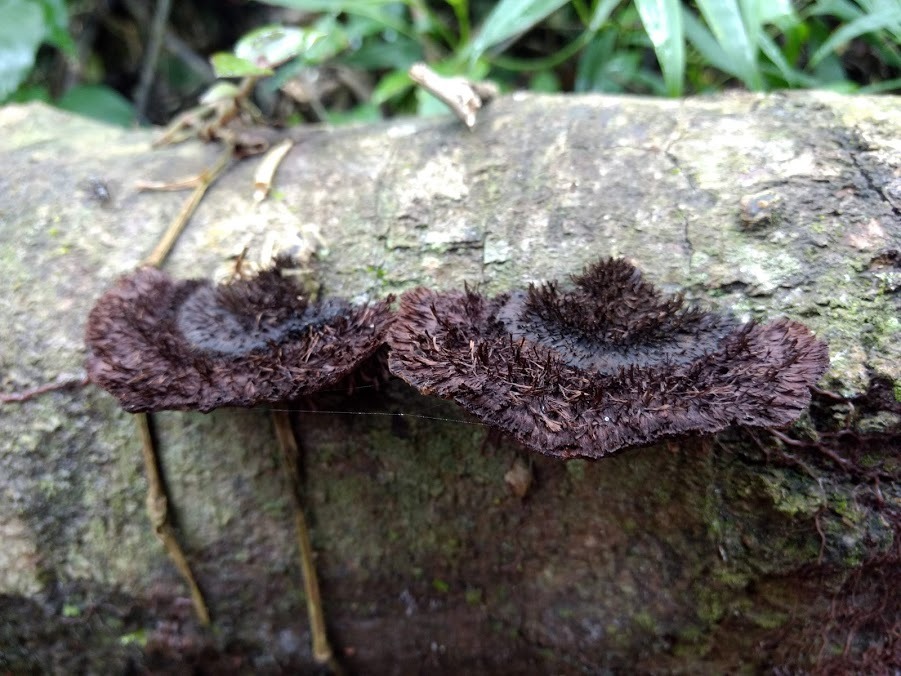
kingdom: Fungi
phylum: Basidiomycota
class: Agaricomycetes
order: Polyporales
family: Cerrenaceae
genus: Cerrena
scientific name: Cerrena hydnoides
